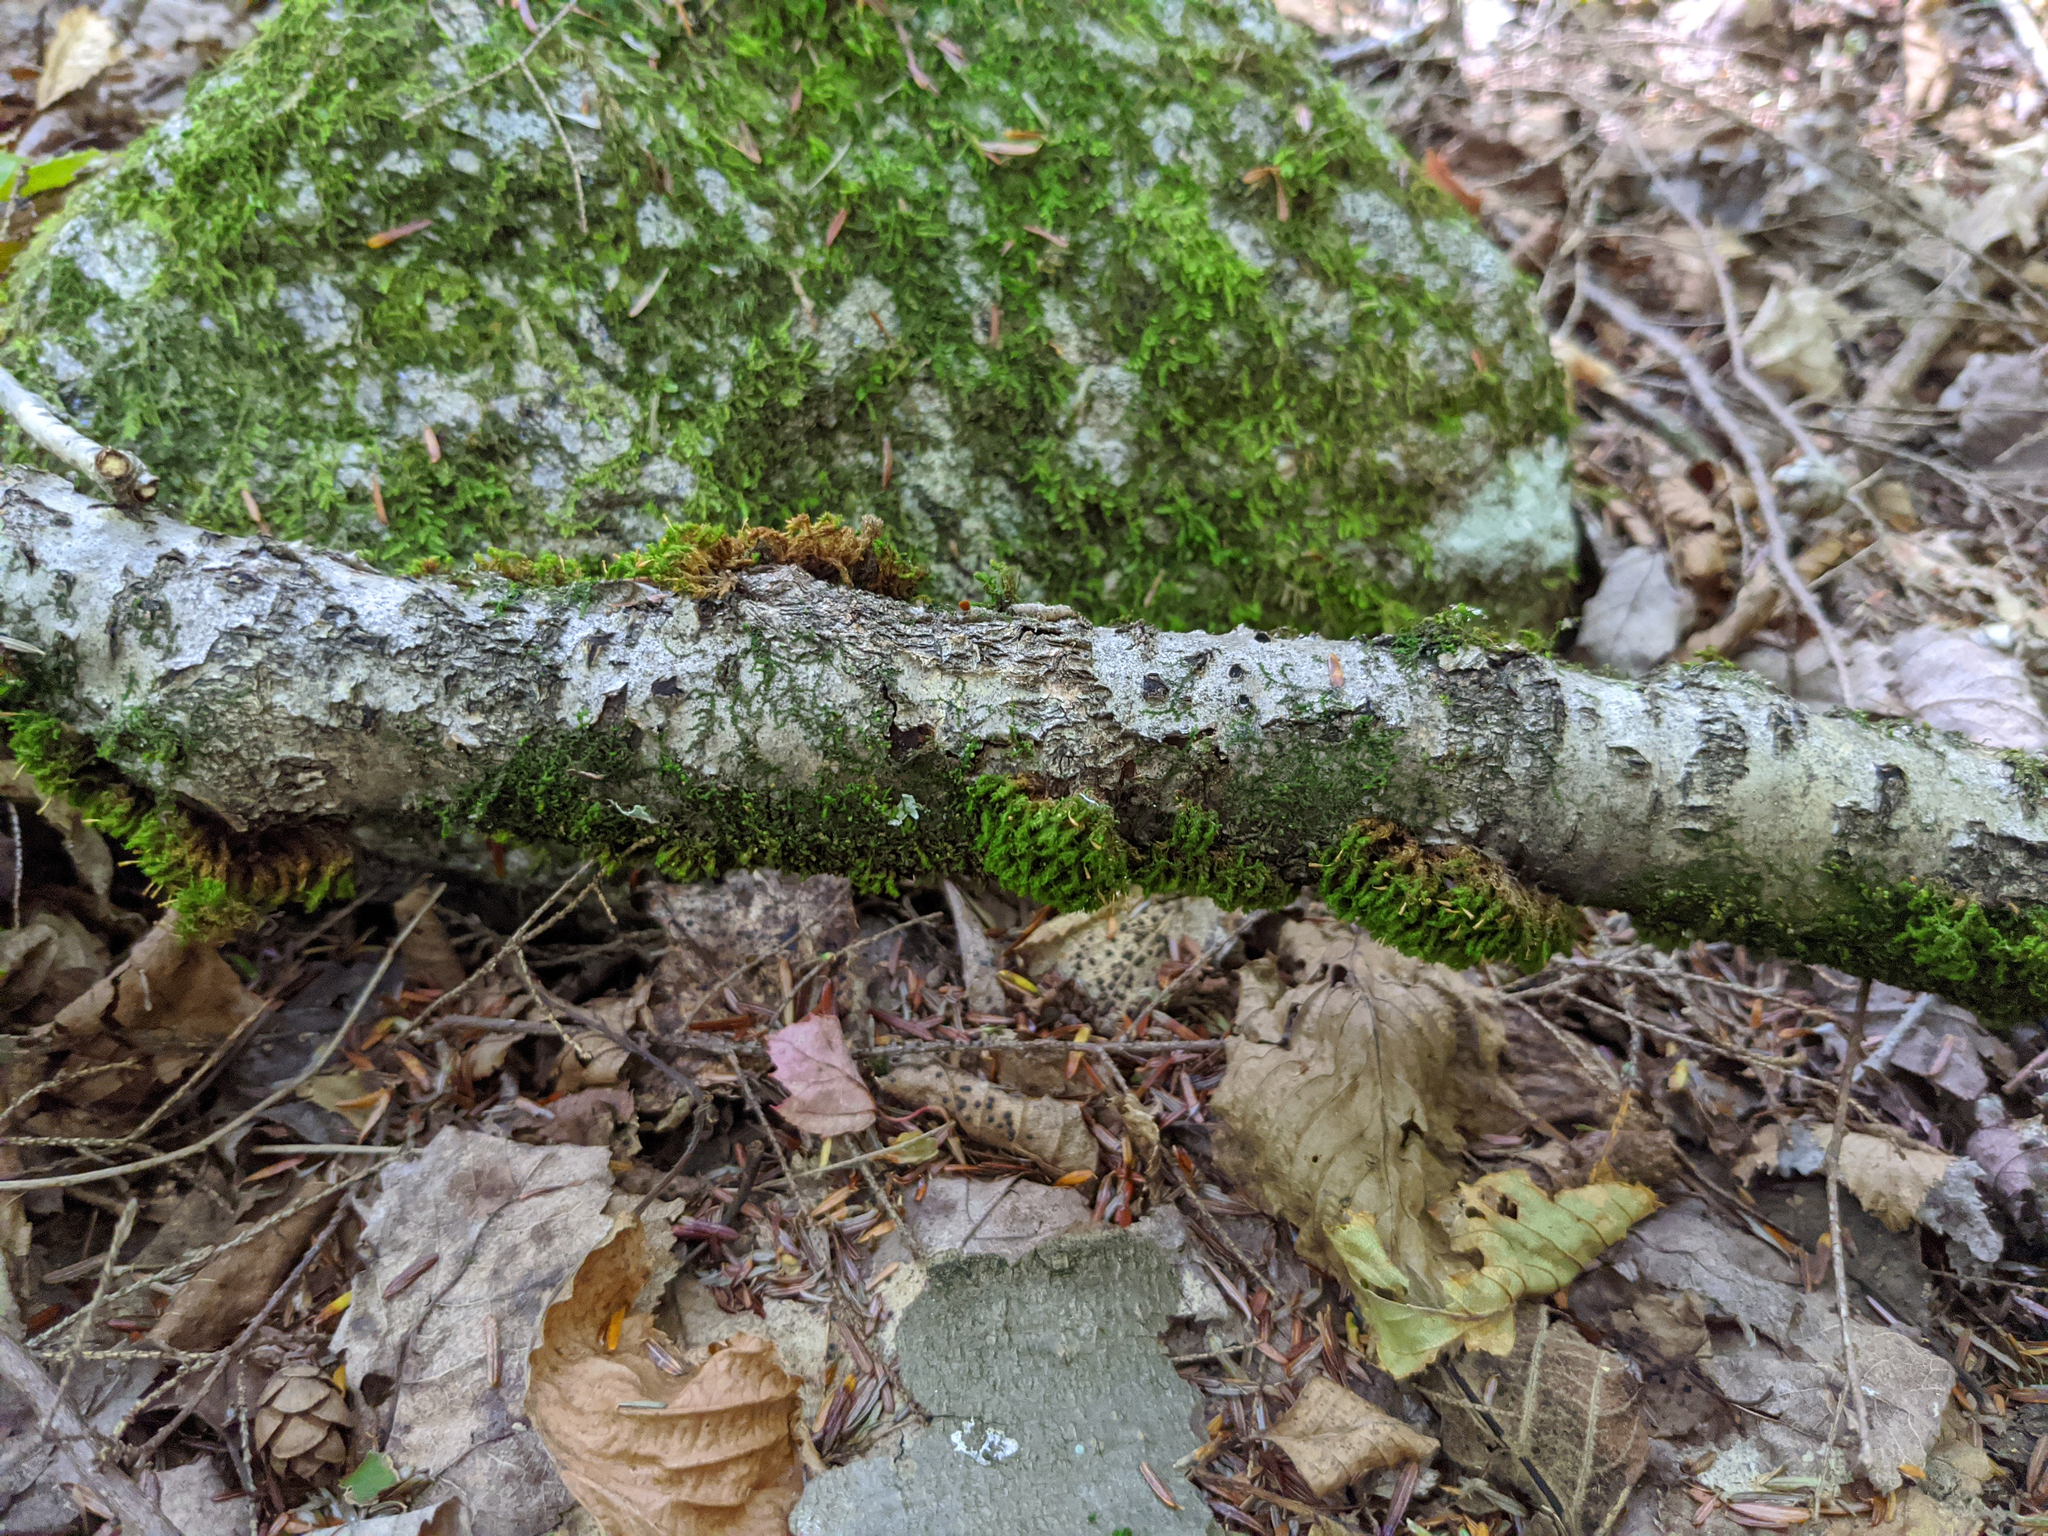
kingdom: Plantae
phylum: Bryophyta
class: Bryopsida
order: Orthotrichales
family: Orthotrichaceae
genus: Ulota
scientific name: Ulota crispa
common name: Crisped pincushion moss
